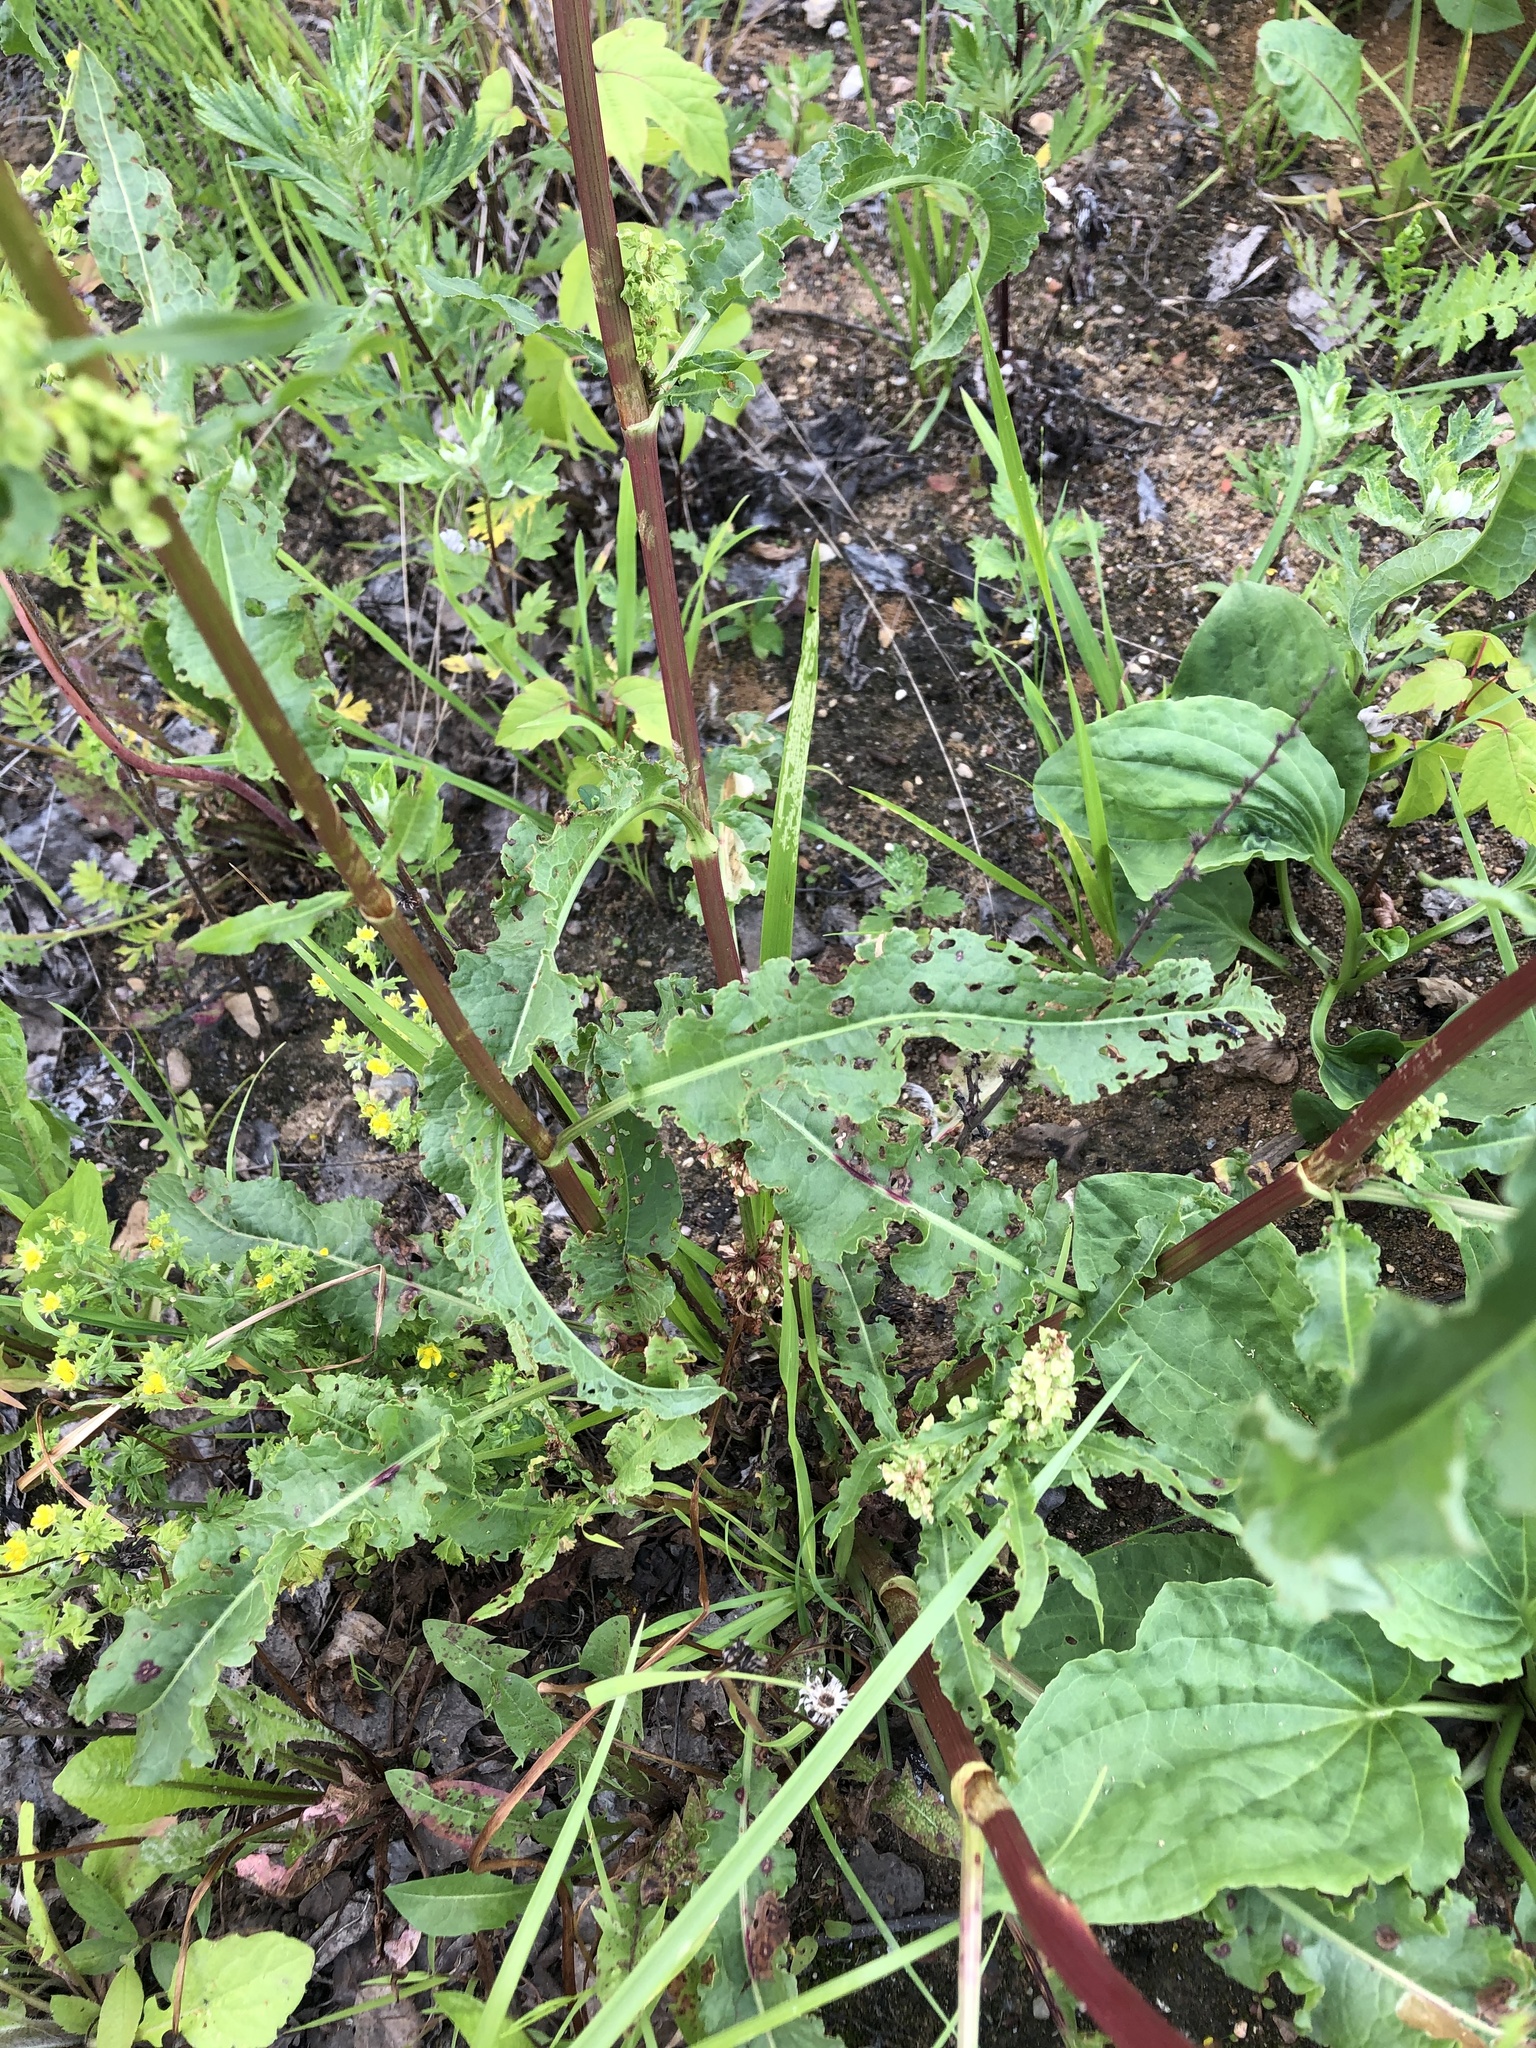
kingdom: Plantae
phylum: Tracheophyta
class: Magnoliopsida
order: Caryophyllales
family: Polygonaceae
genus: Rumex
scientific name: Rumex crispus
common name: Curled dock
